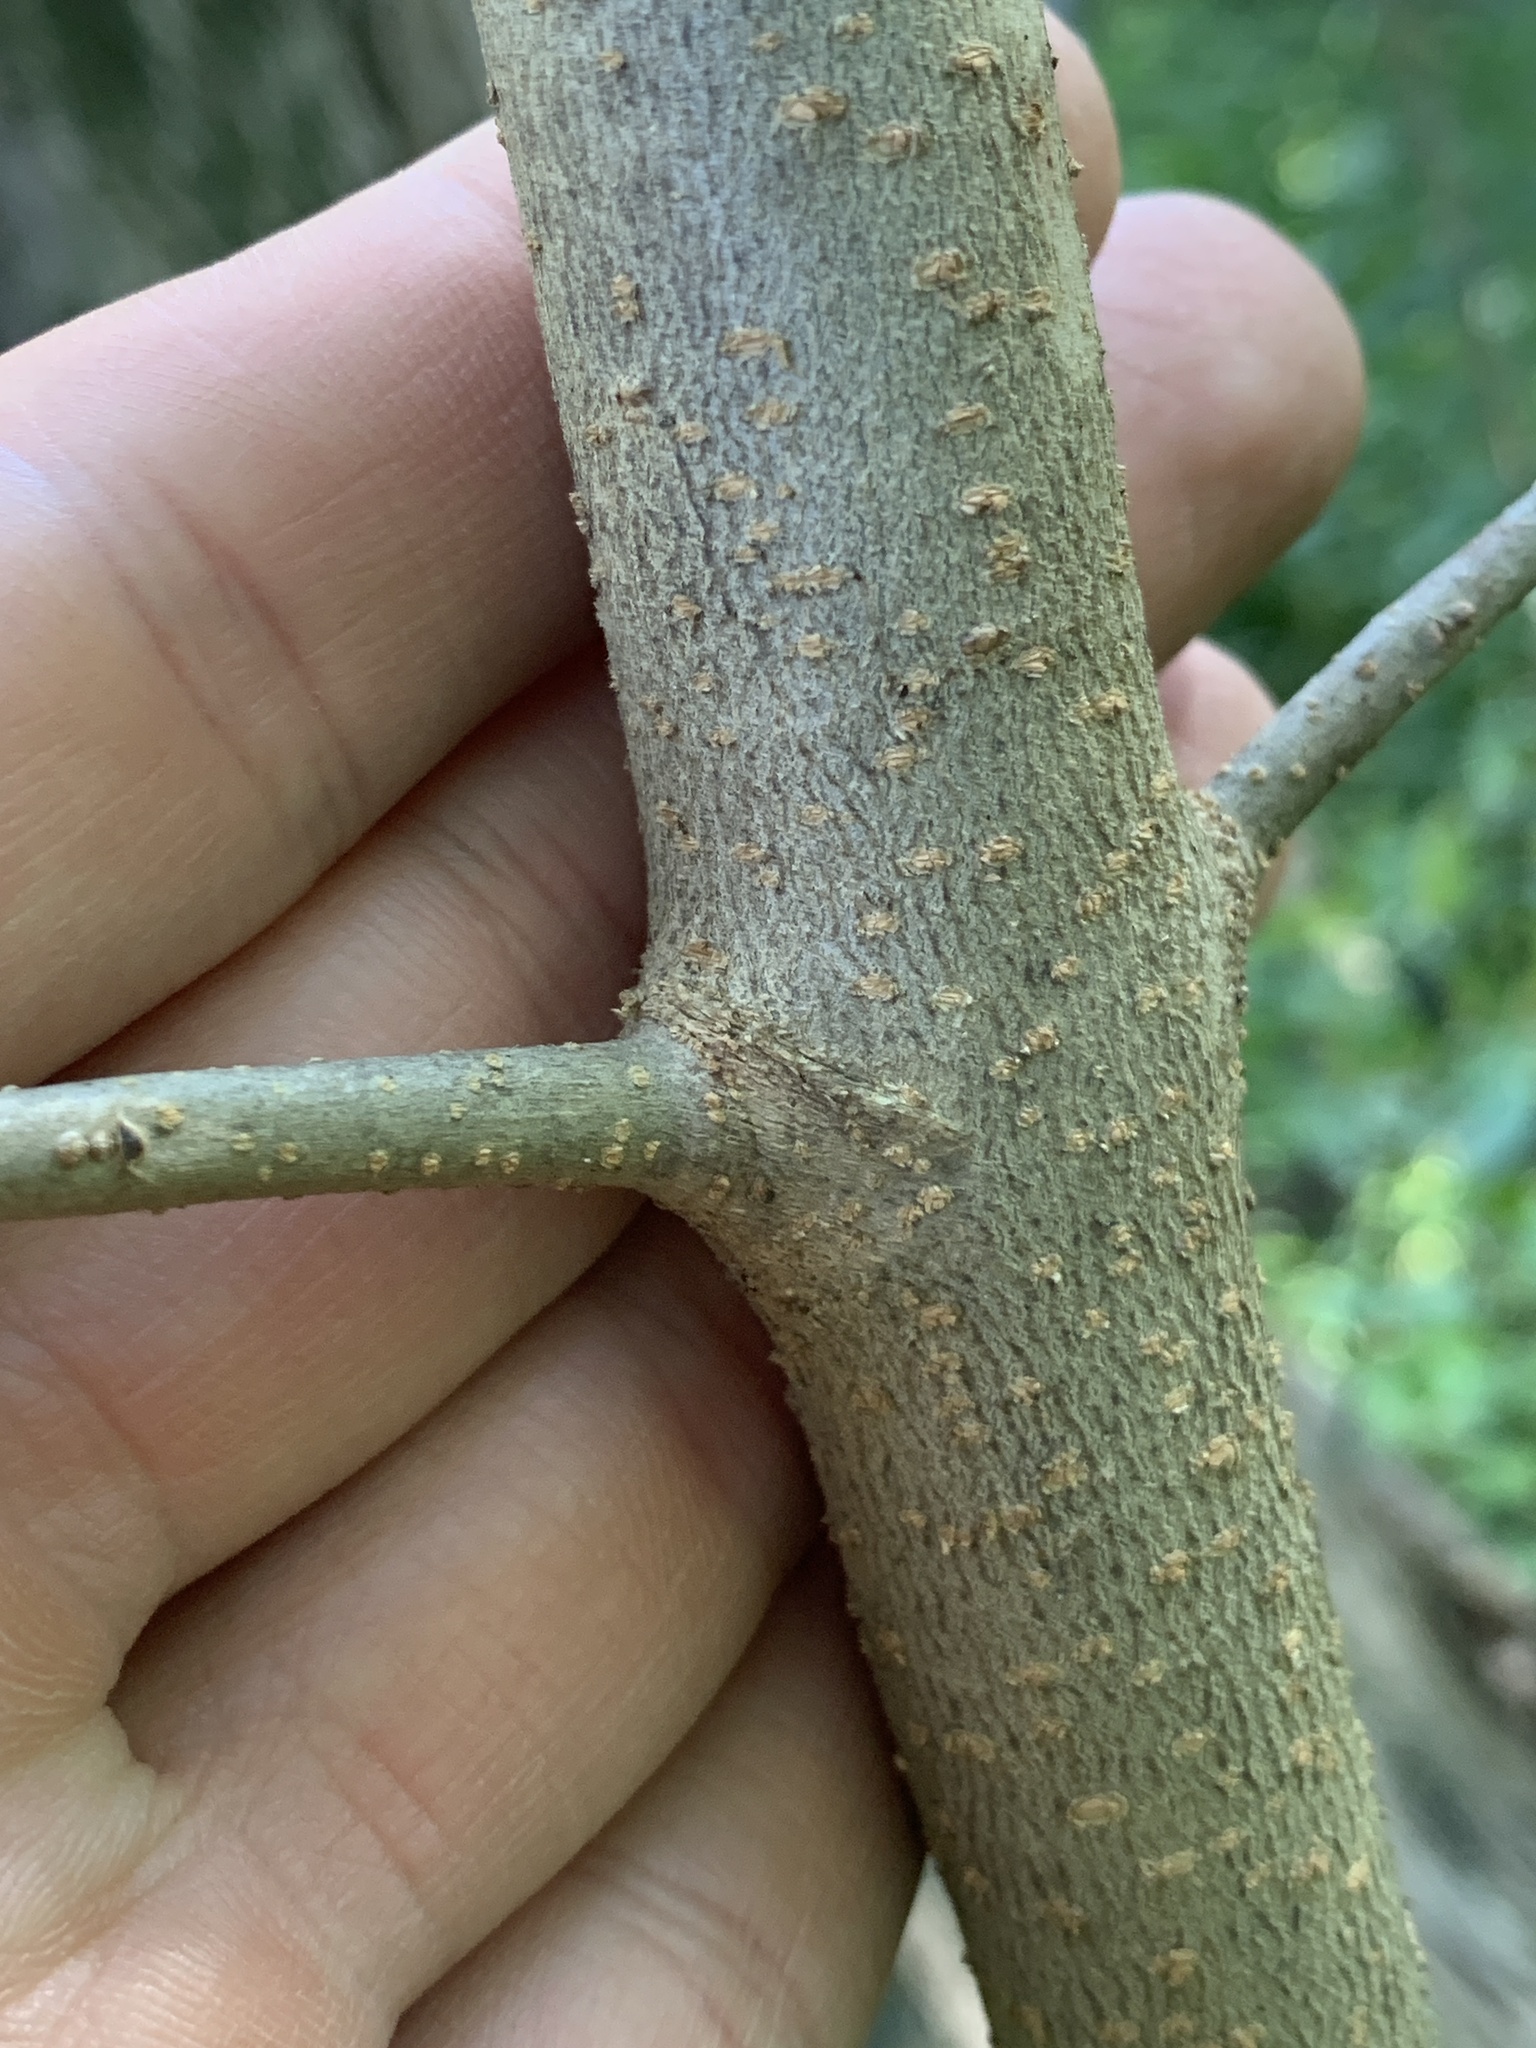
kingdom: Plantae
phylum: Tracheophyta
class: Magnoliopsida
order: Lamiales
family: Oleaceae
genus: Forestiera
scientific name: Forestiera acuminata
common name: Swamp-privet
